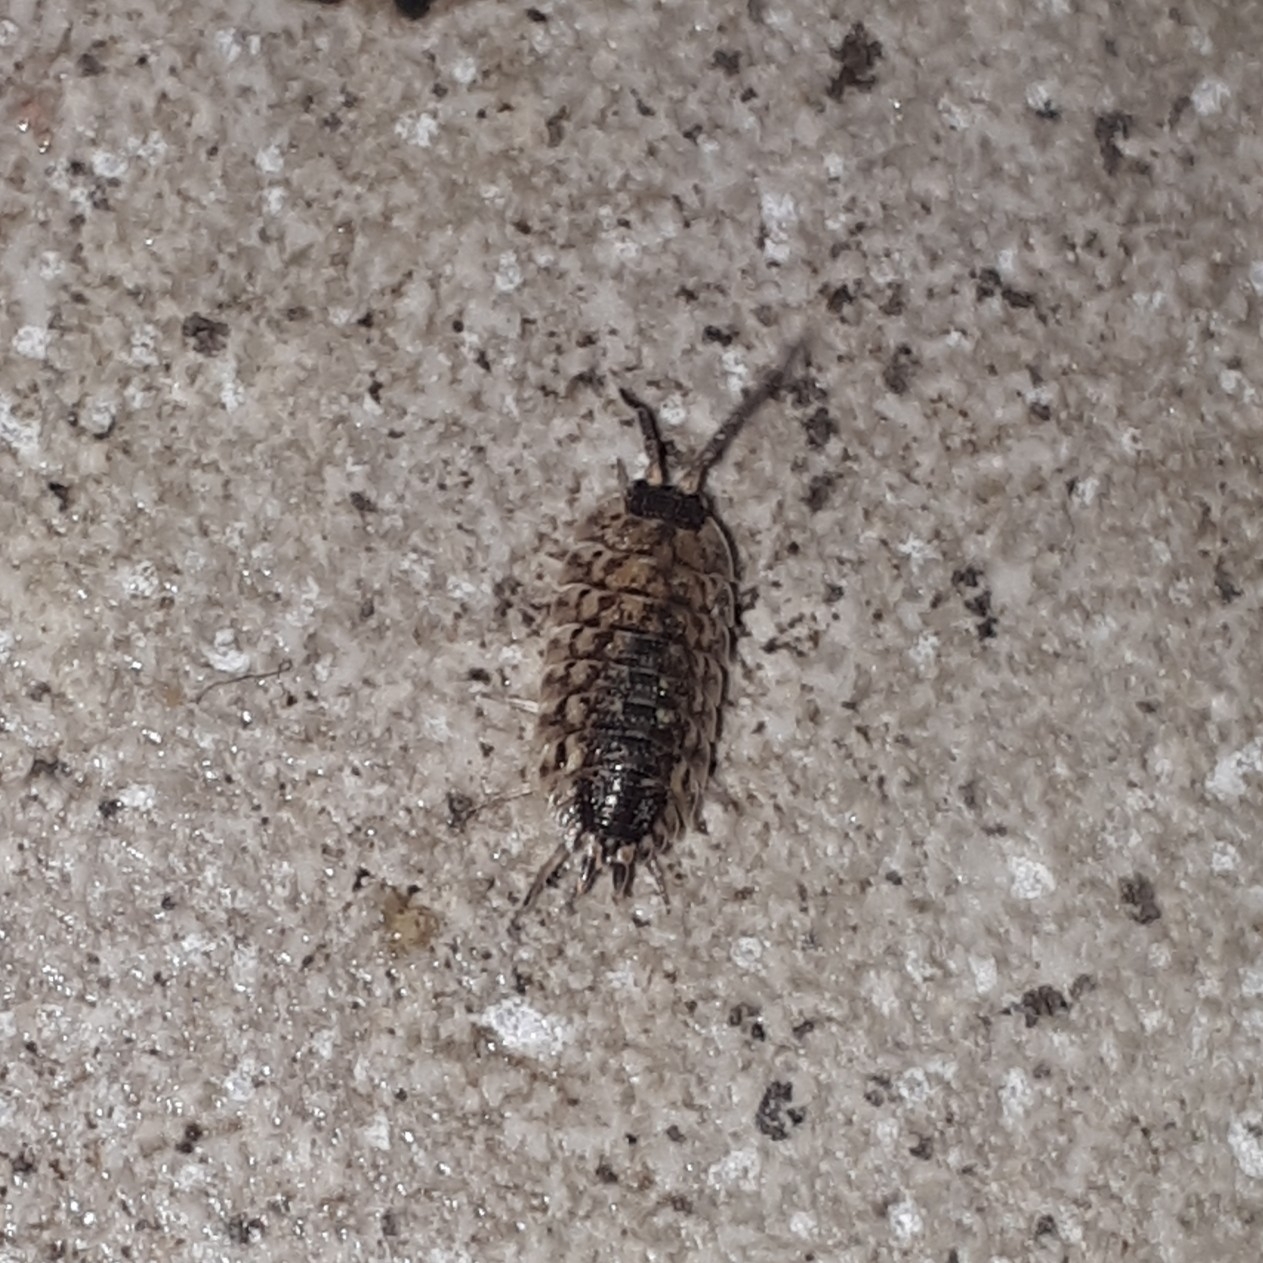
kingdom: Animalia
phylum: Arthropoda
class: Malacostraca
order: Isopoda
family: Porcellionidae
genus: Porcellio
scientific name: Porcellio spinicornis
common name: Painted woodlouse
